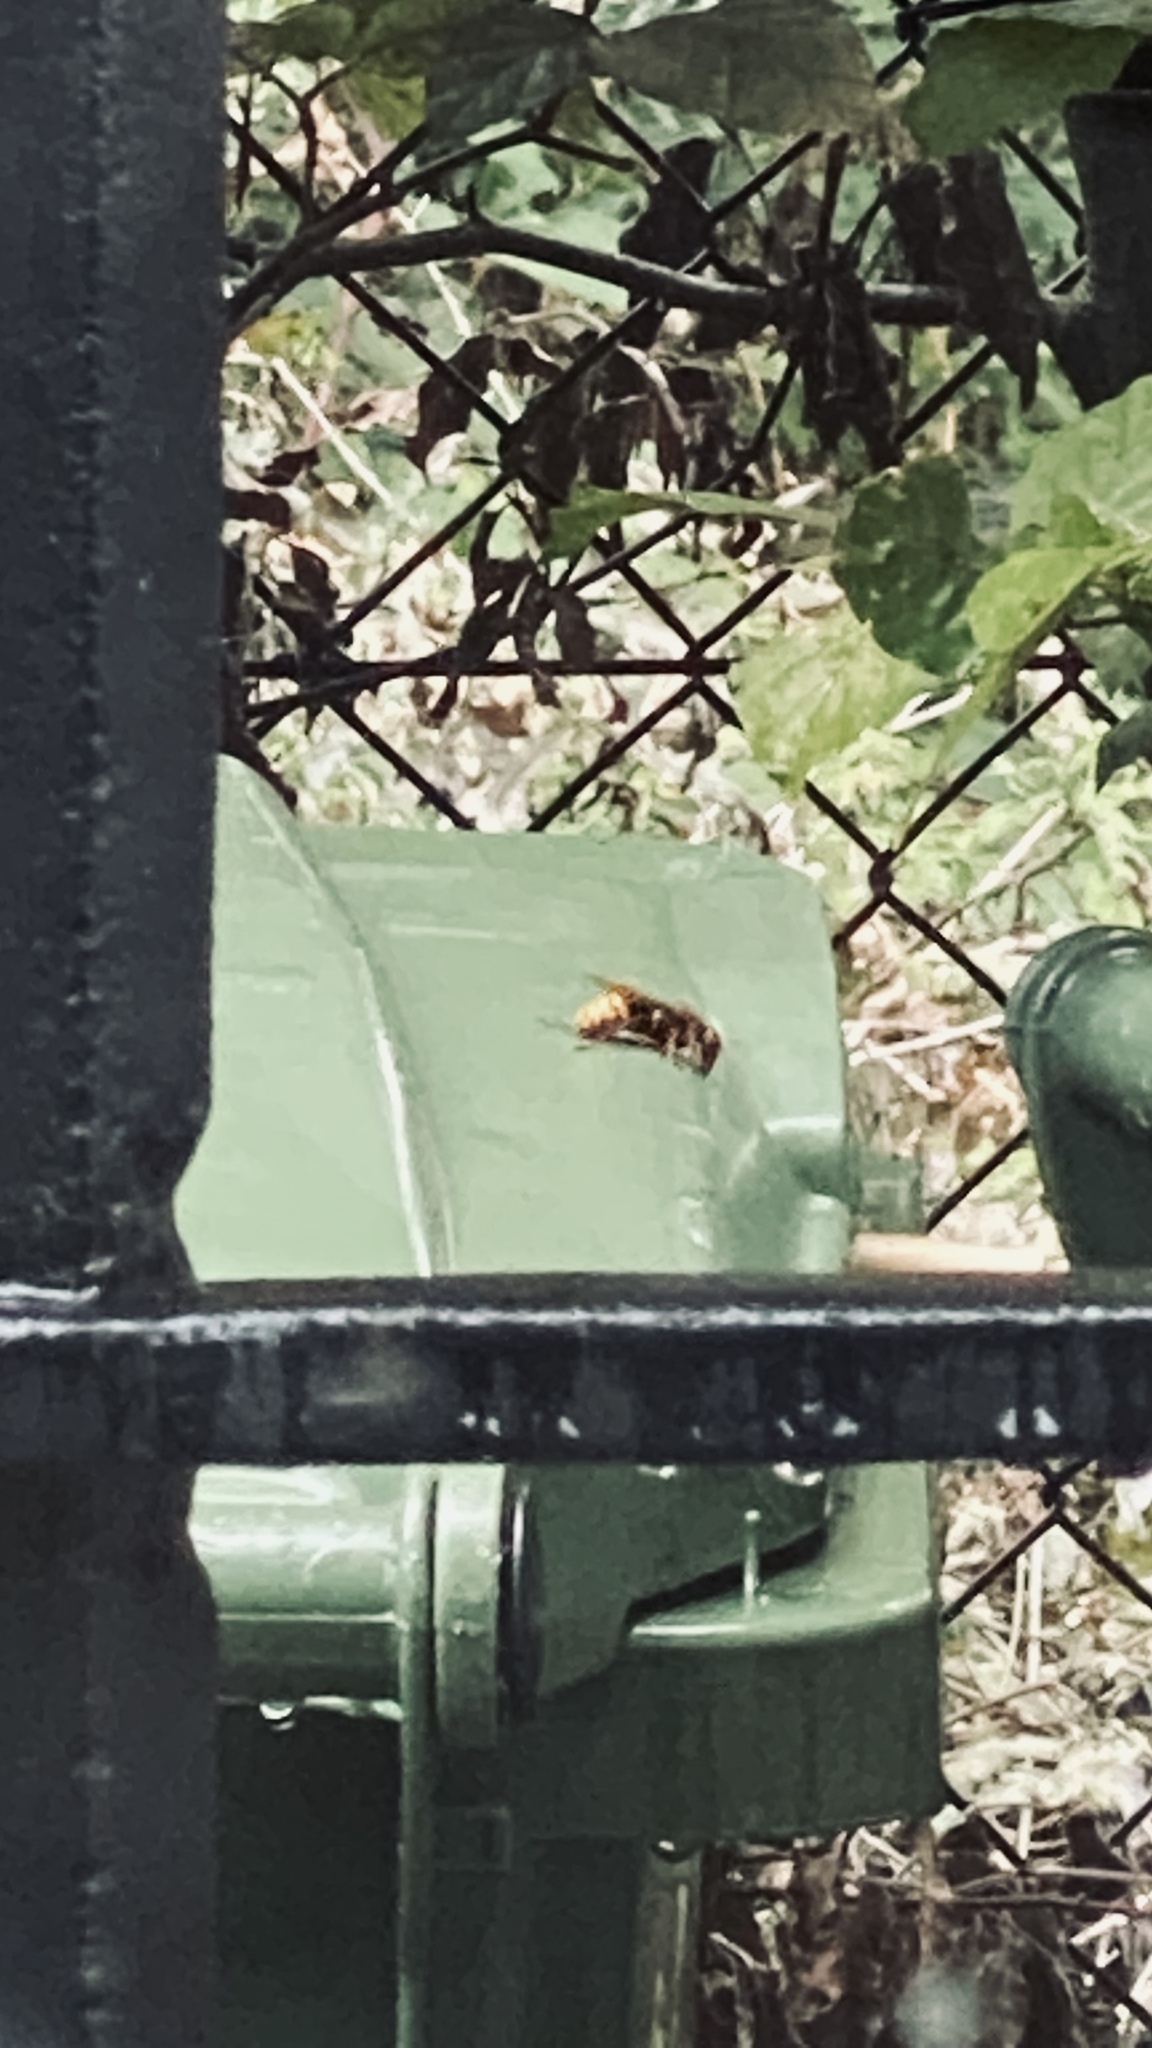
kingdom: Animalia
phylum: Arthropoda
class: Insecta
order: Hymenoptera
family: Vespidae
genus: Vespa
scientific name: Vespa crabro
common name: Hornet
